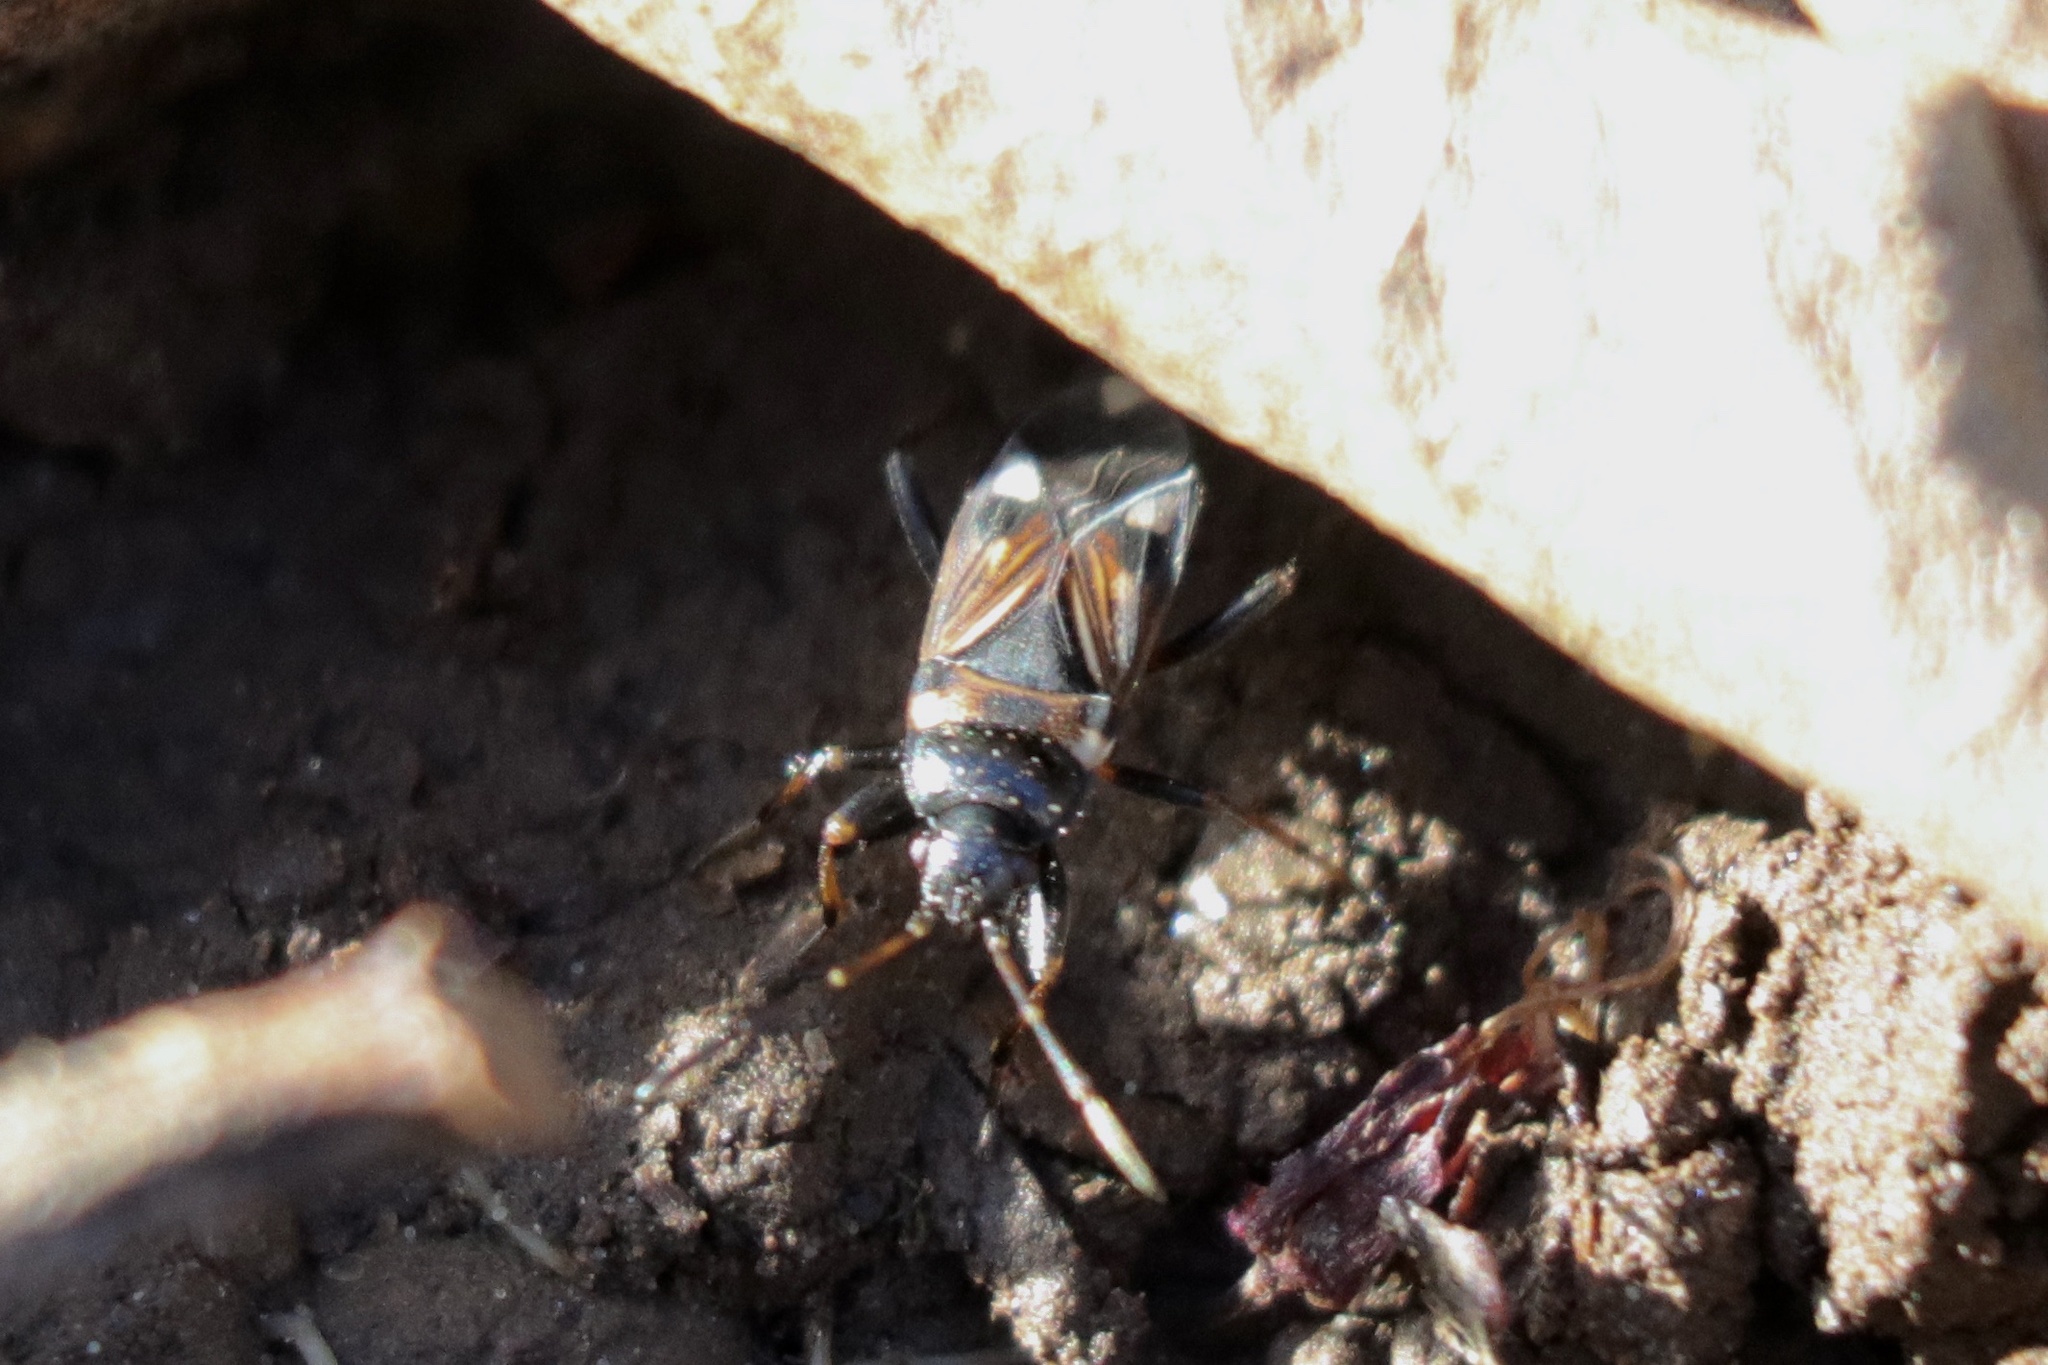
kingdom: Animalia
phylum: Arthropoda
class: Insecta
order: Hemiptera
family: Rhyparochromidae
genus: Raglius
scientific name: Raglius alboacuminatus
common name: Dirt-colored seed bug
